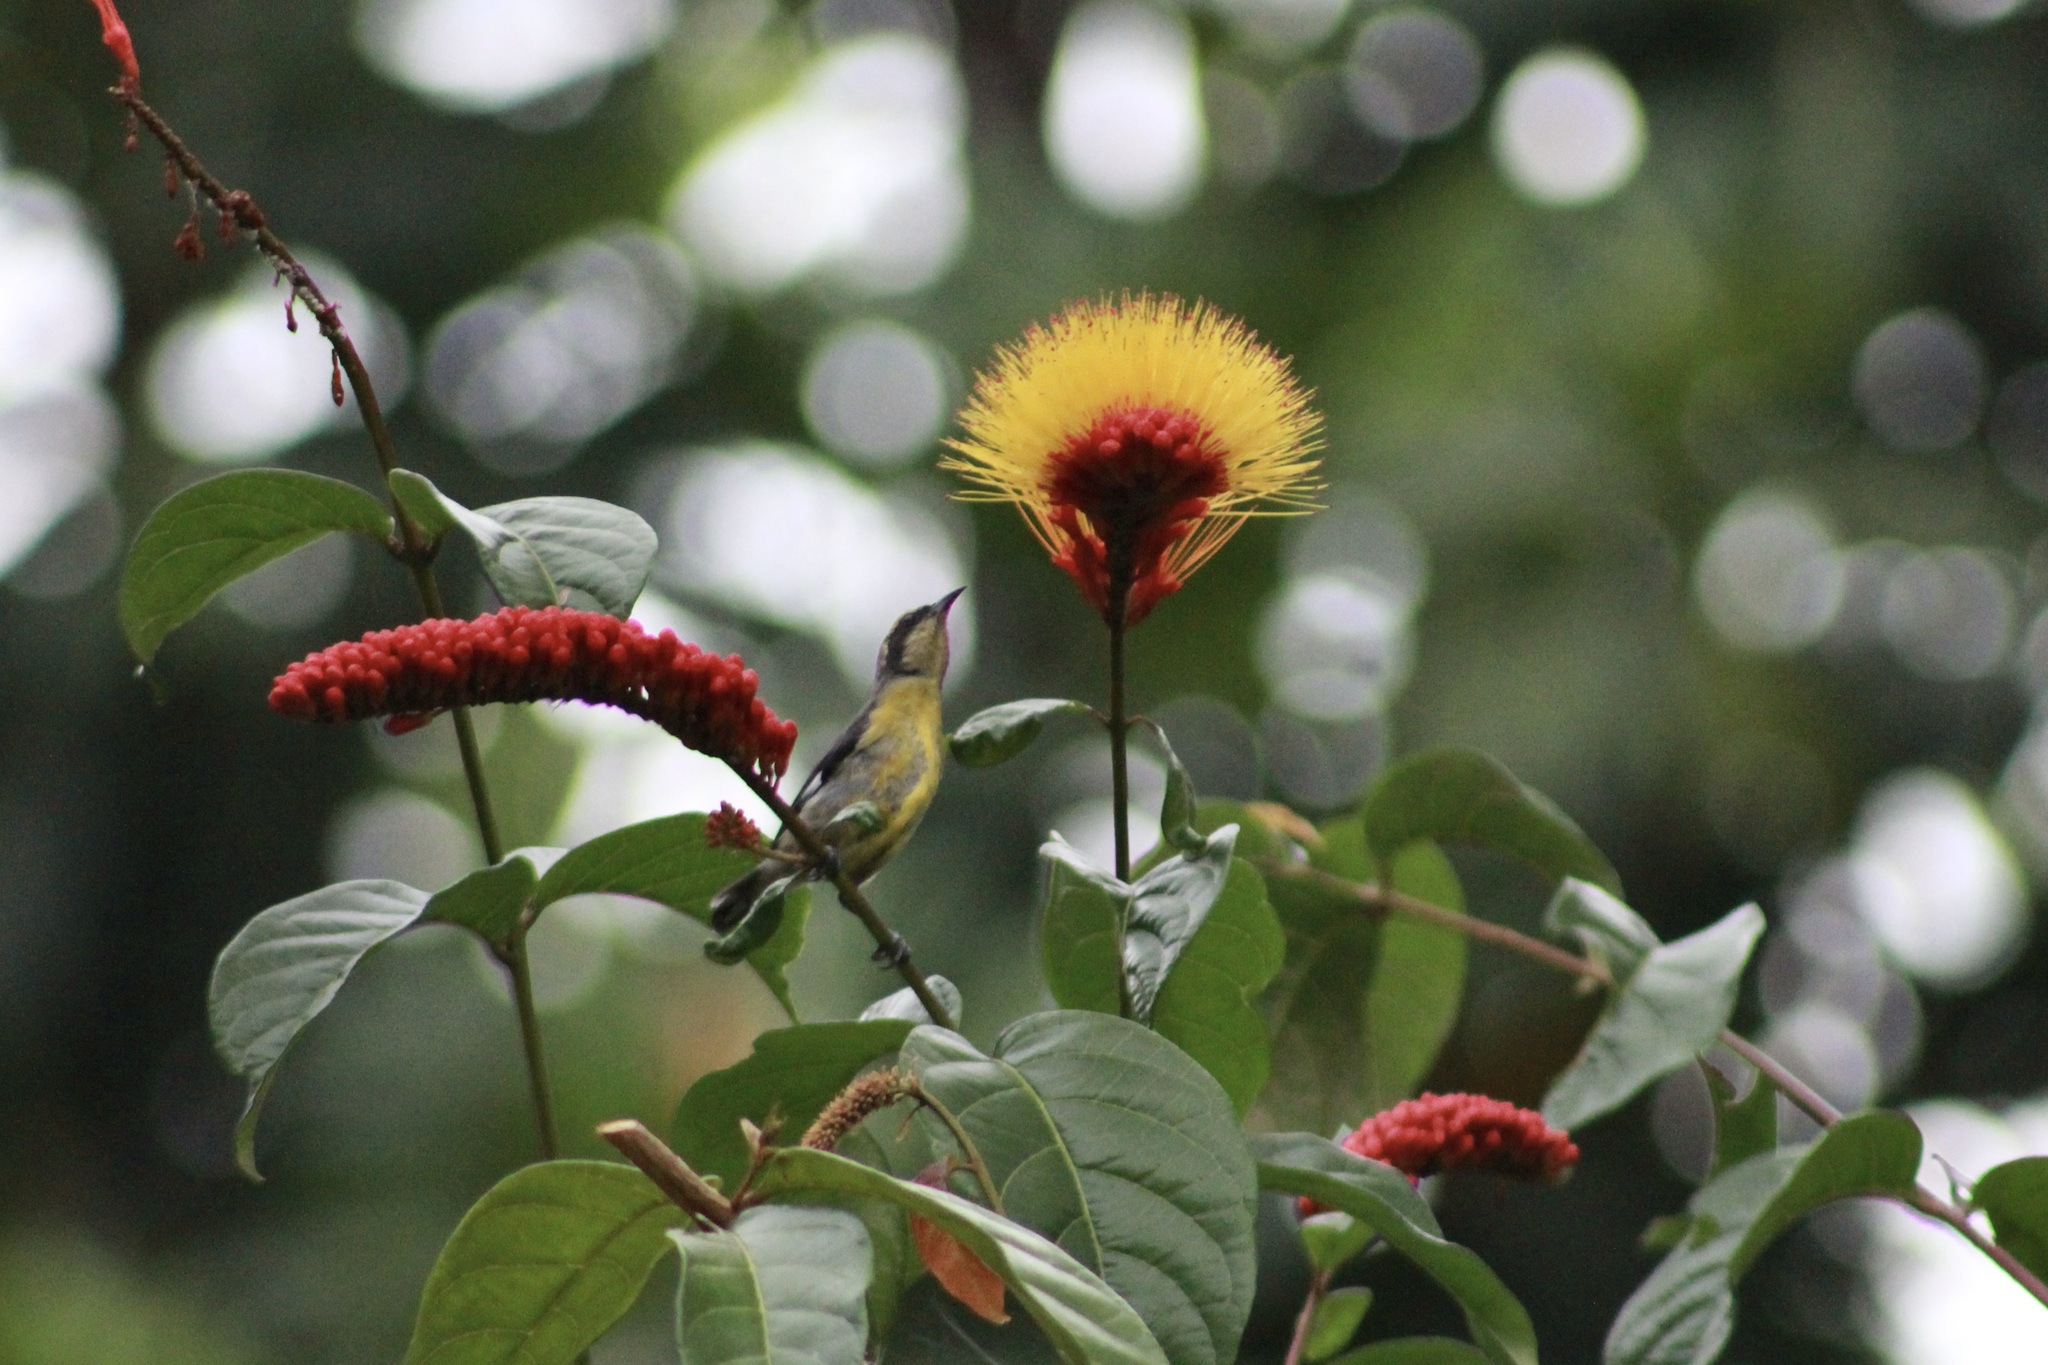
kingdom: Animalia
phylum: Chordata
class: Aves
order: Passeriformes
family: Thraupidae
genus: Coereba
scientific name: Coereba flaveola
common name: Bananaquit
